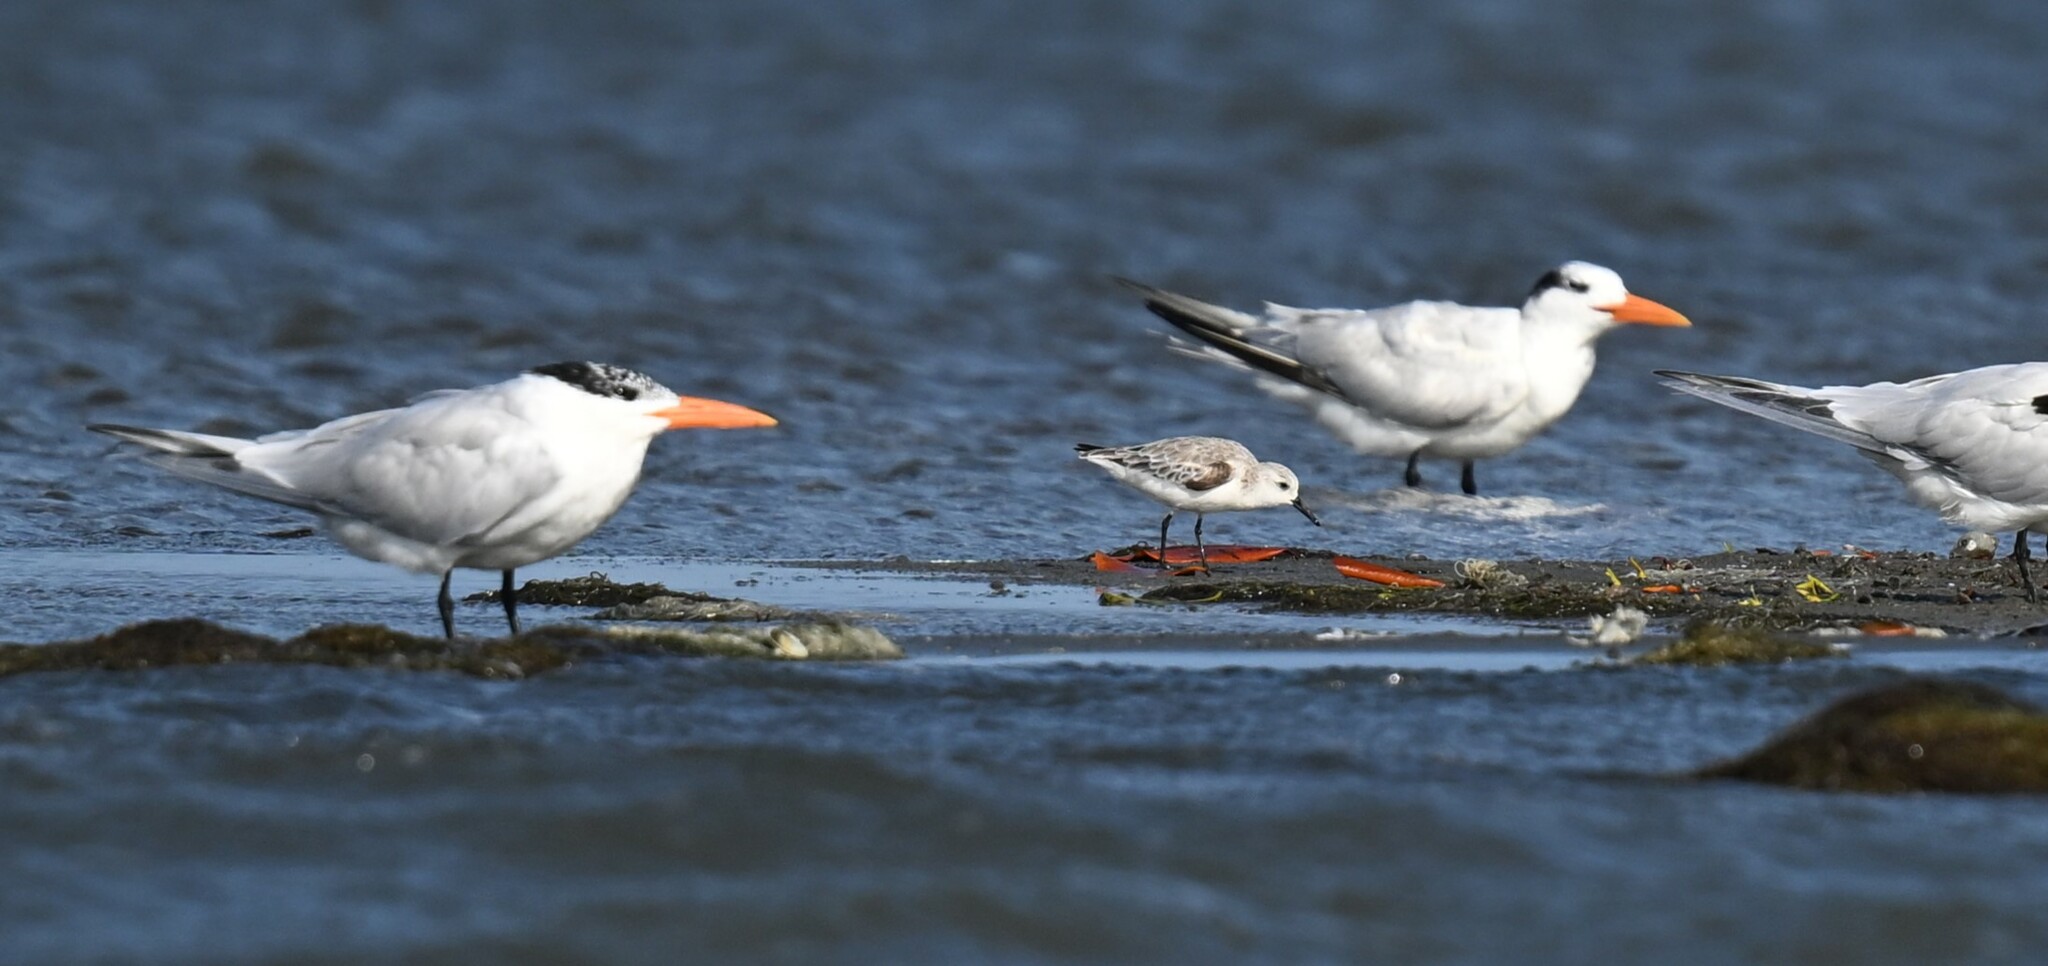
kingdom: Animalia
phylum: Chordata
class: Aves
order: Charadriiformes
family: Scolopacidae
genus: Calidris
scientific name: Calidris alba
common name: Sanderling
